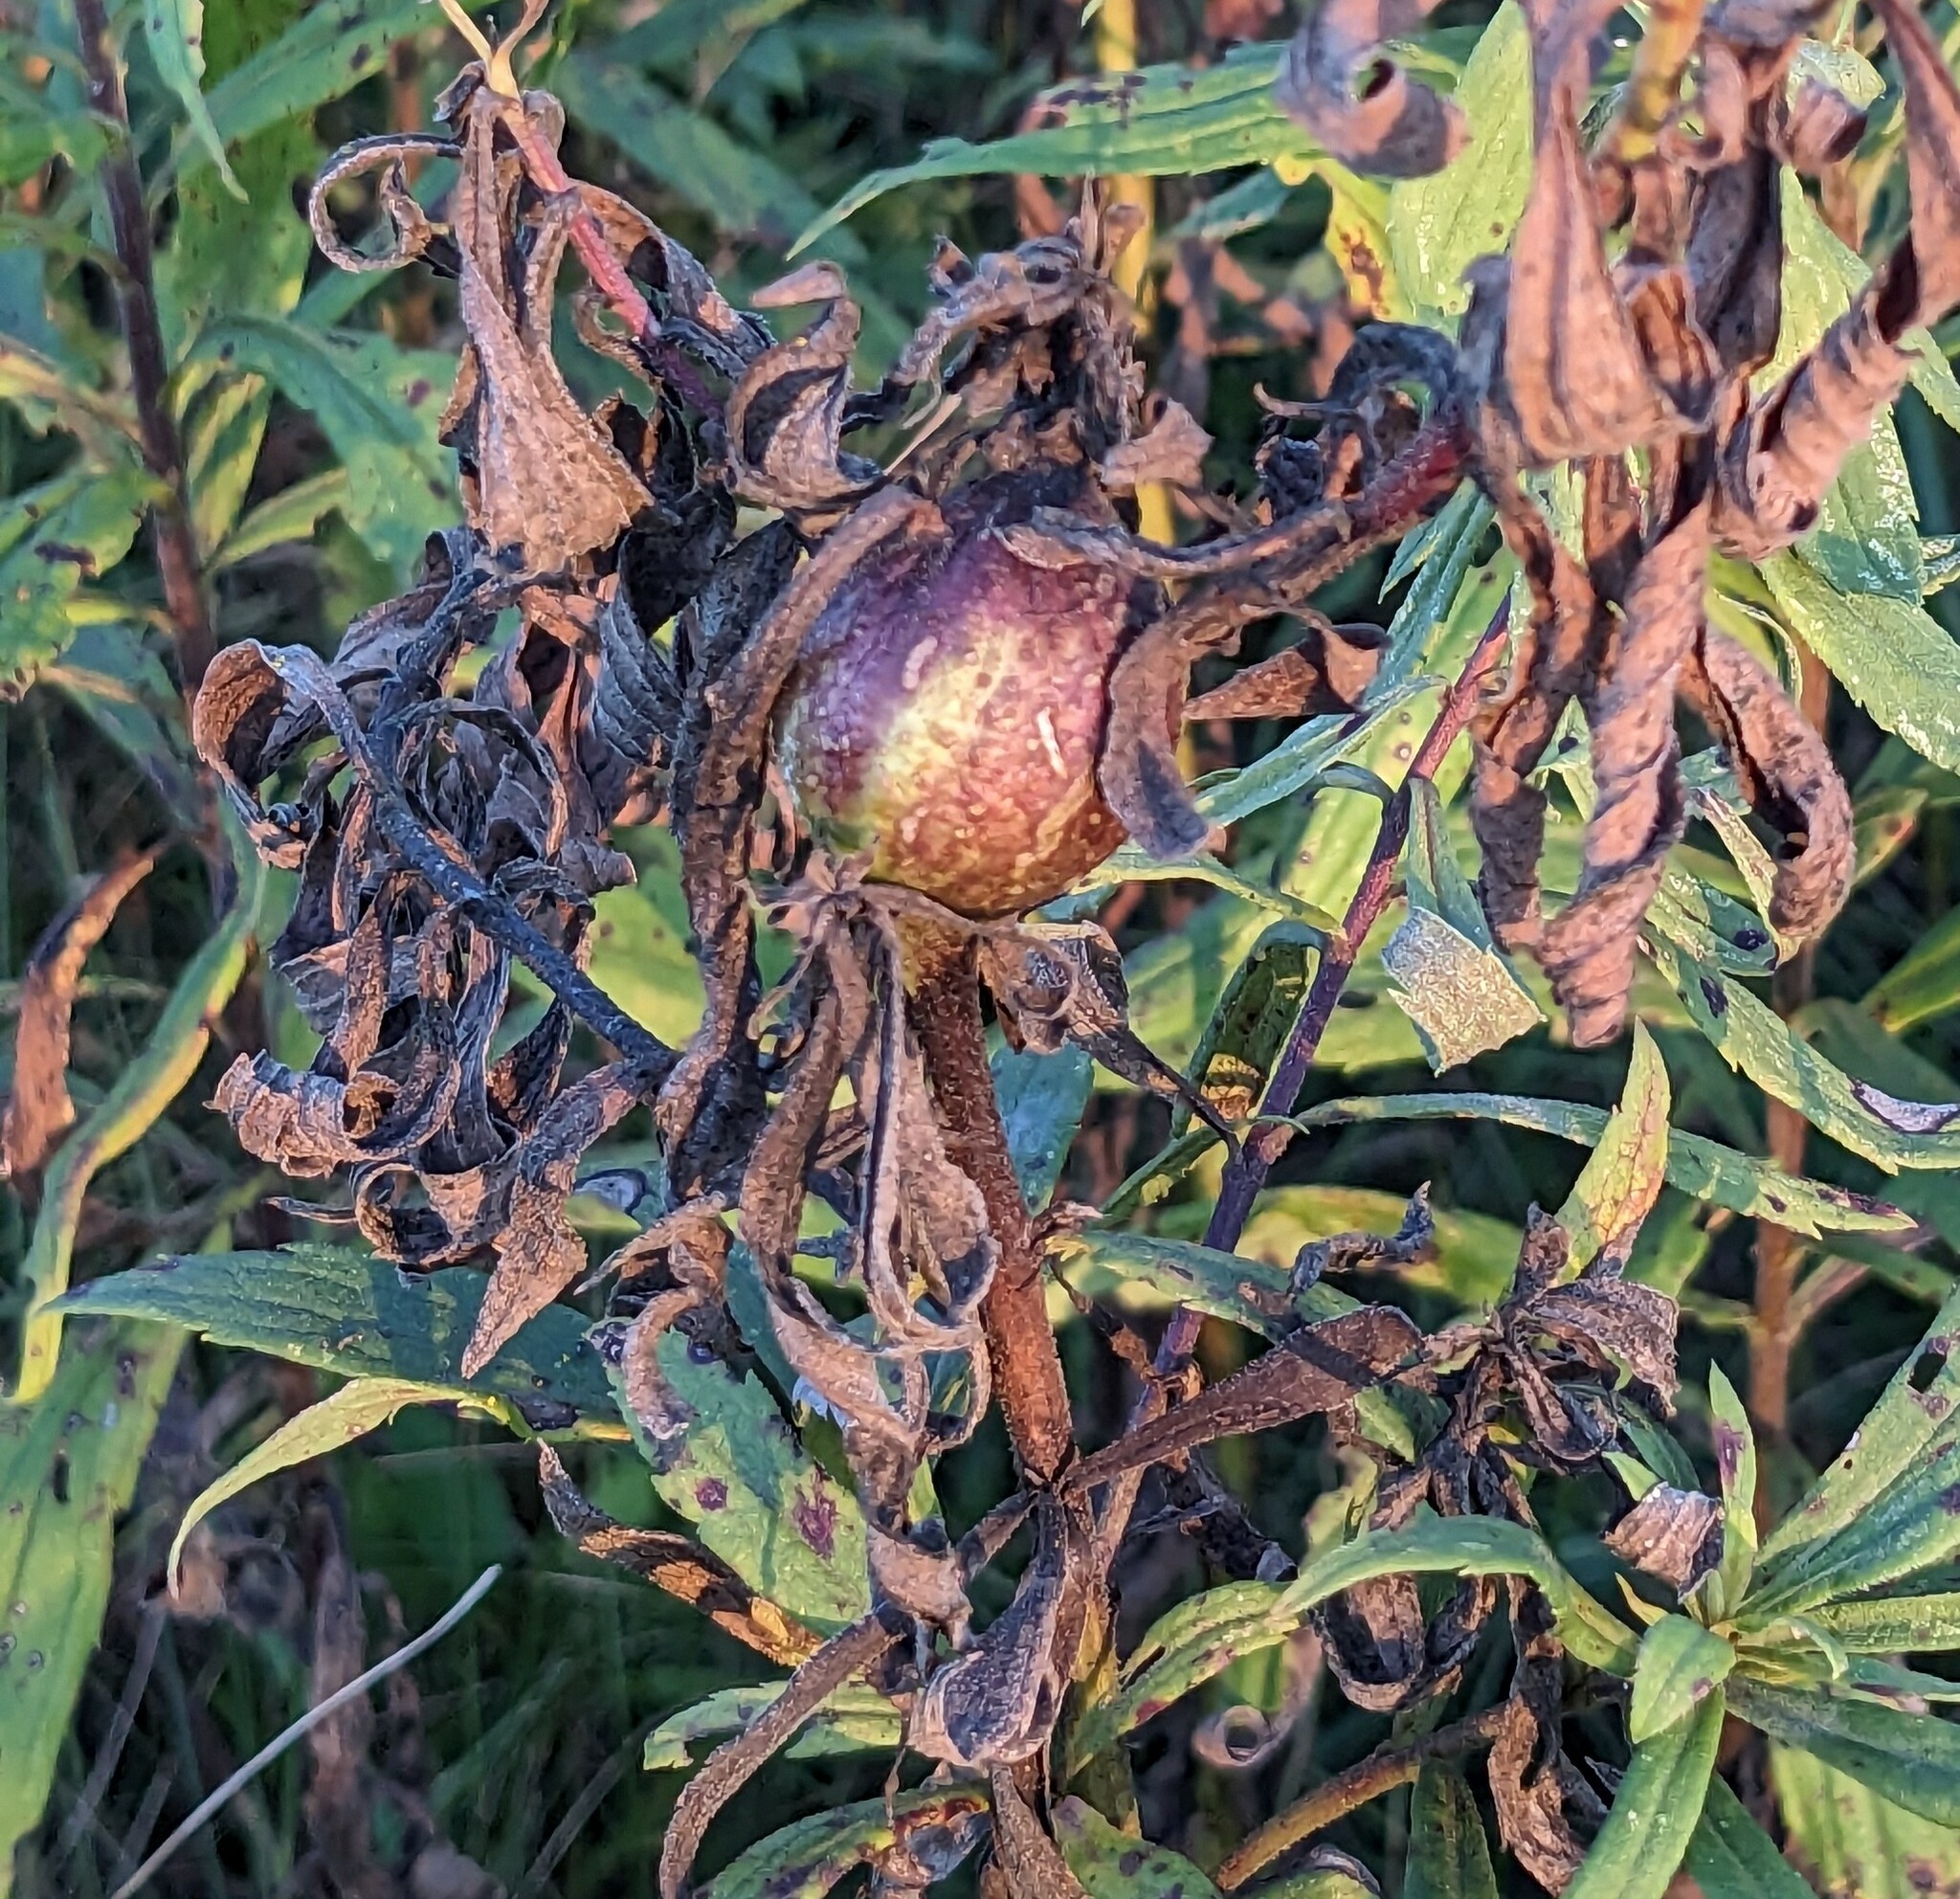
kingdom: Animalia
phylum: Arthropoda
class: Insecta
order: Diptera
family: Tephritidae
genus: Eurosta
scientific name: Eurosta solidaginis
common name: Goldenrod gall fly
